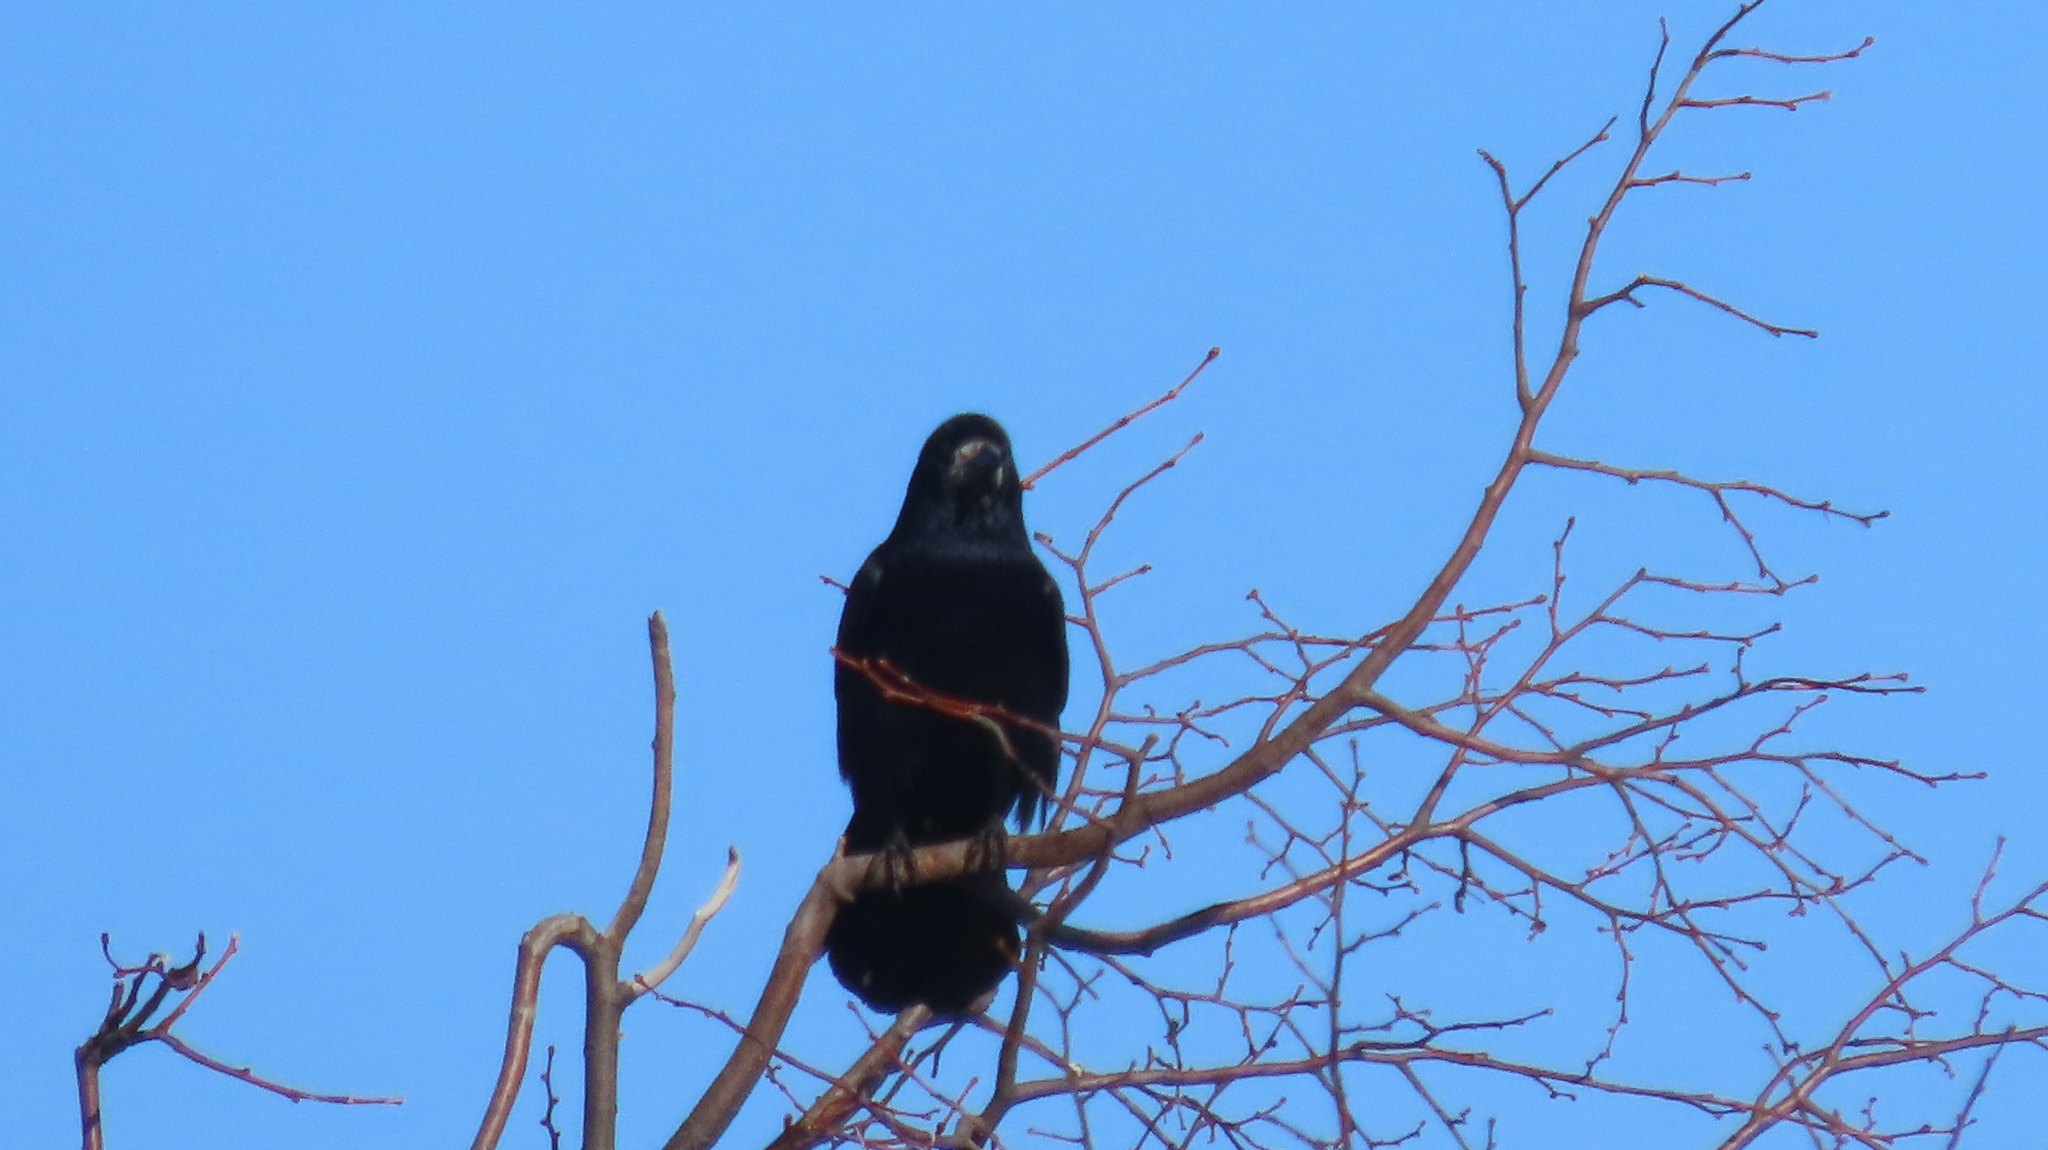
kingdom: Animalia
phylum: Chordata
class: Aves
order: Passeriformes
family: Corvidae
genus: Corvus
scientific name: Corvus frugilegus
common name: Rook
